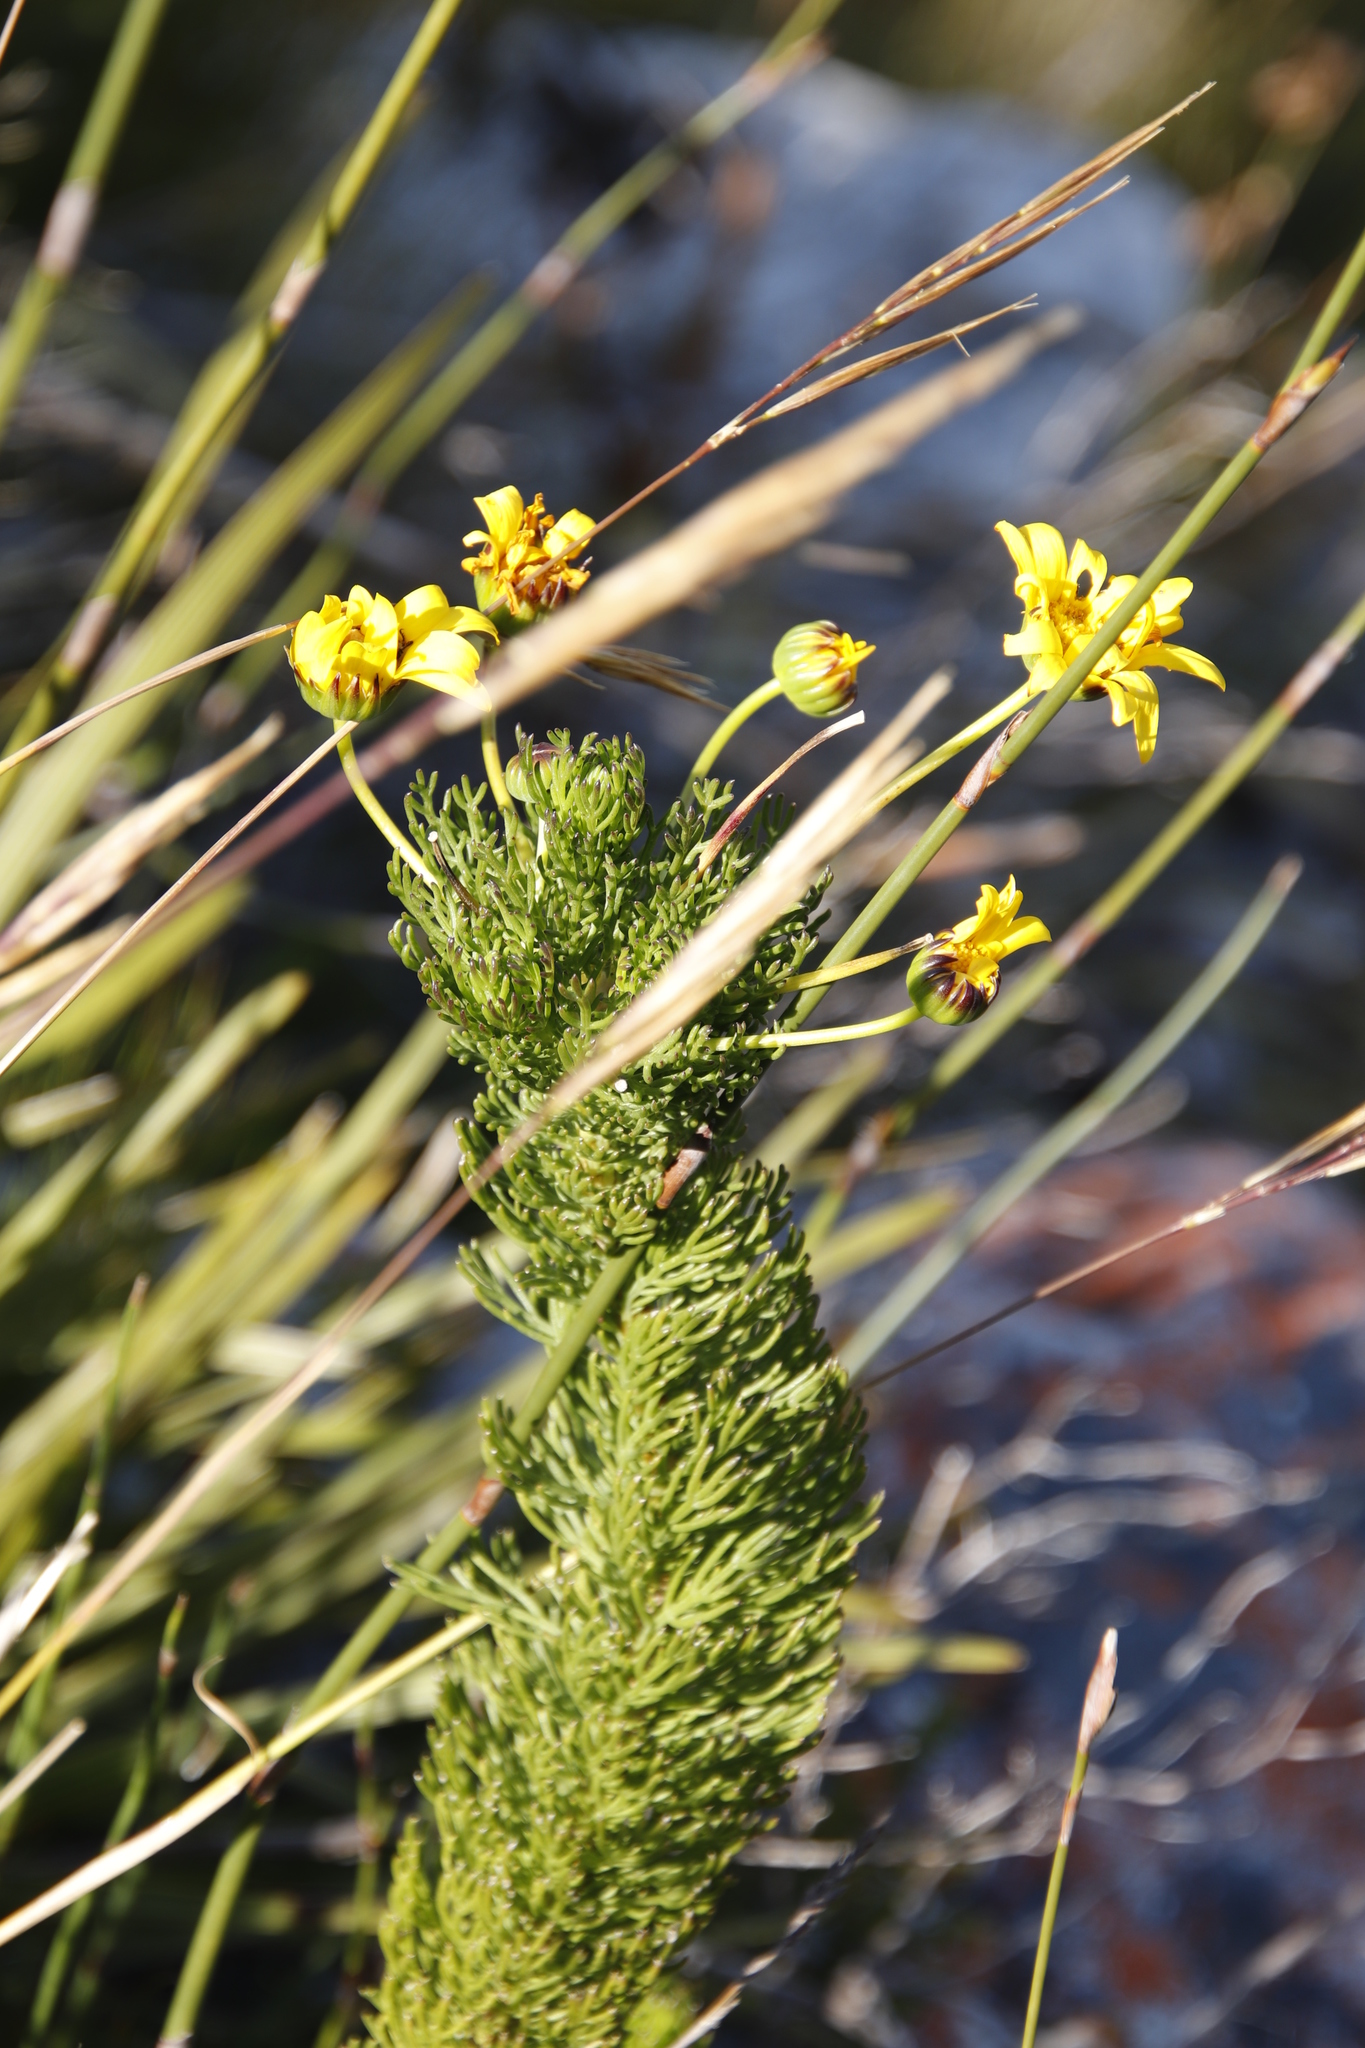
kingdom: Plantae
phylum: Tracheophyta
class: Magnoliopsida
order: Asterales
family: Asteraceae
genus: Euryops
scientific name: Euryops abrotanifolius
